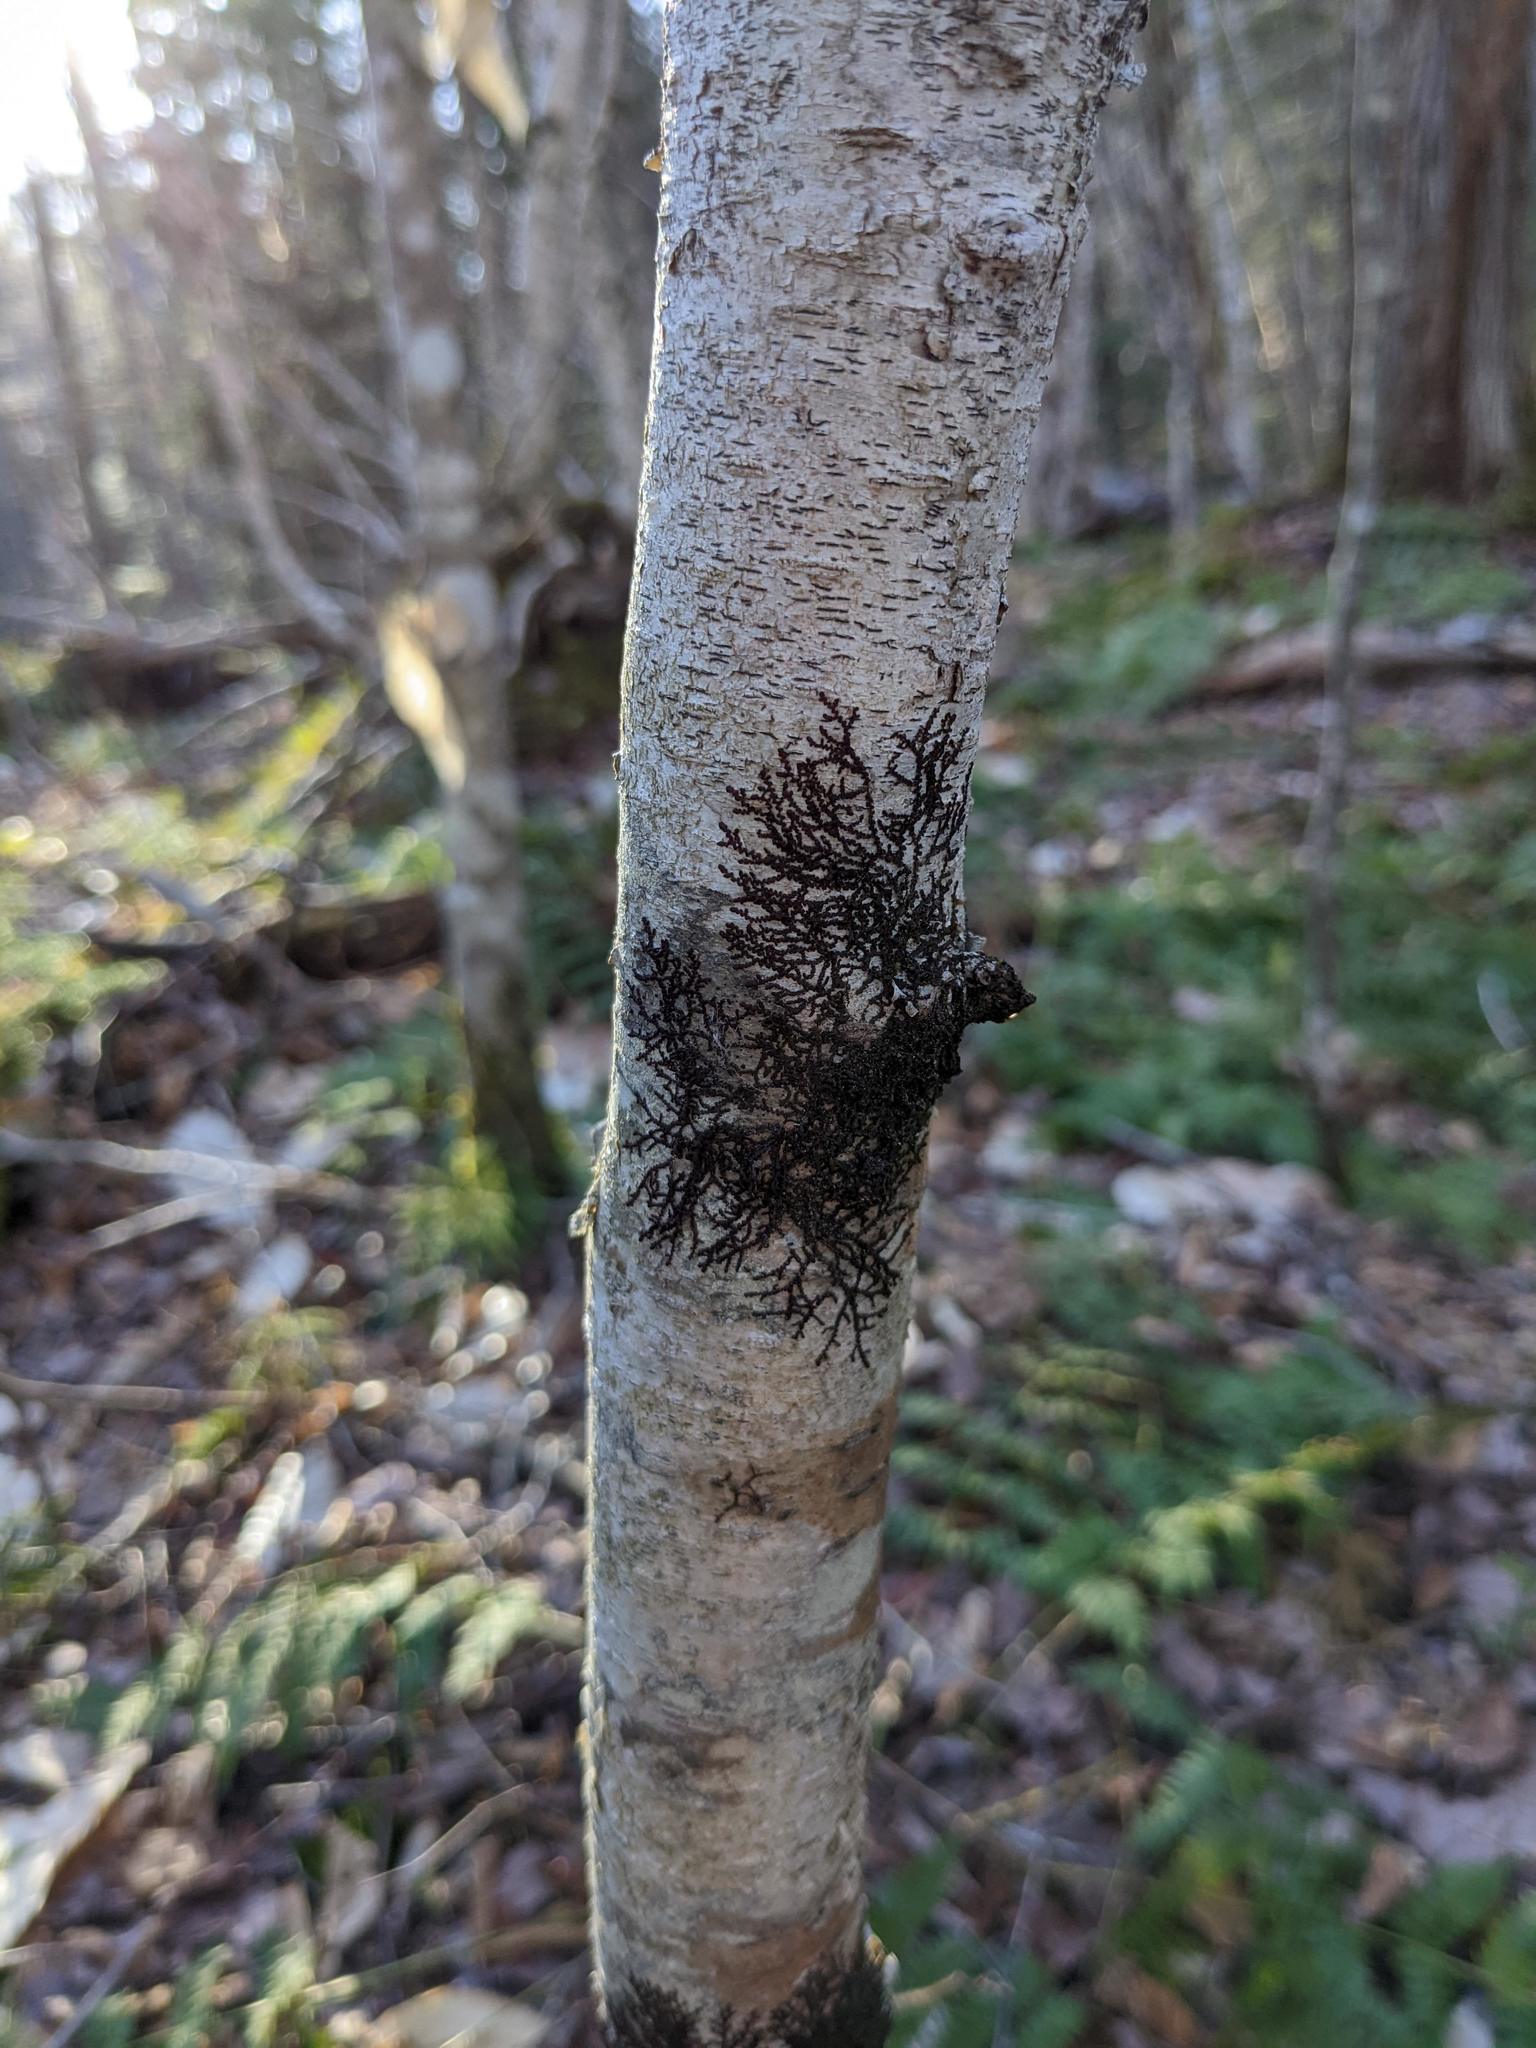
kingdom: Plantae
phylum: Marchantiophyta
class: Jungermanniopsida
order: Porellales
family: Frullaniaceae
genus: Frullania
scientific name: Frullania eboracensis
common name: New york scalewort
